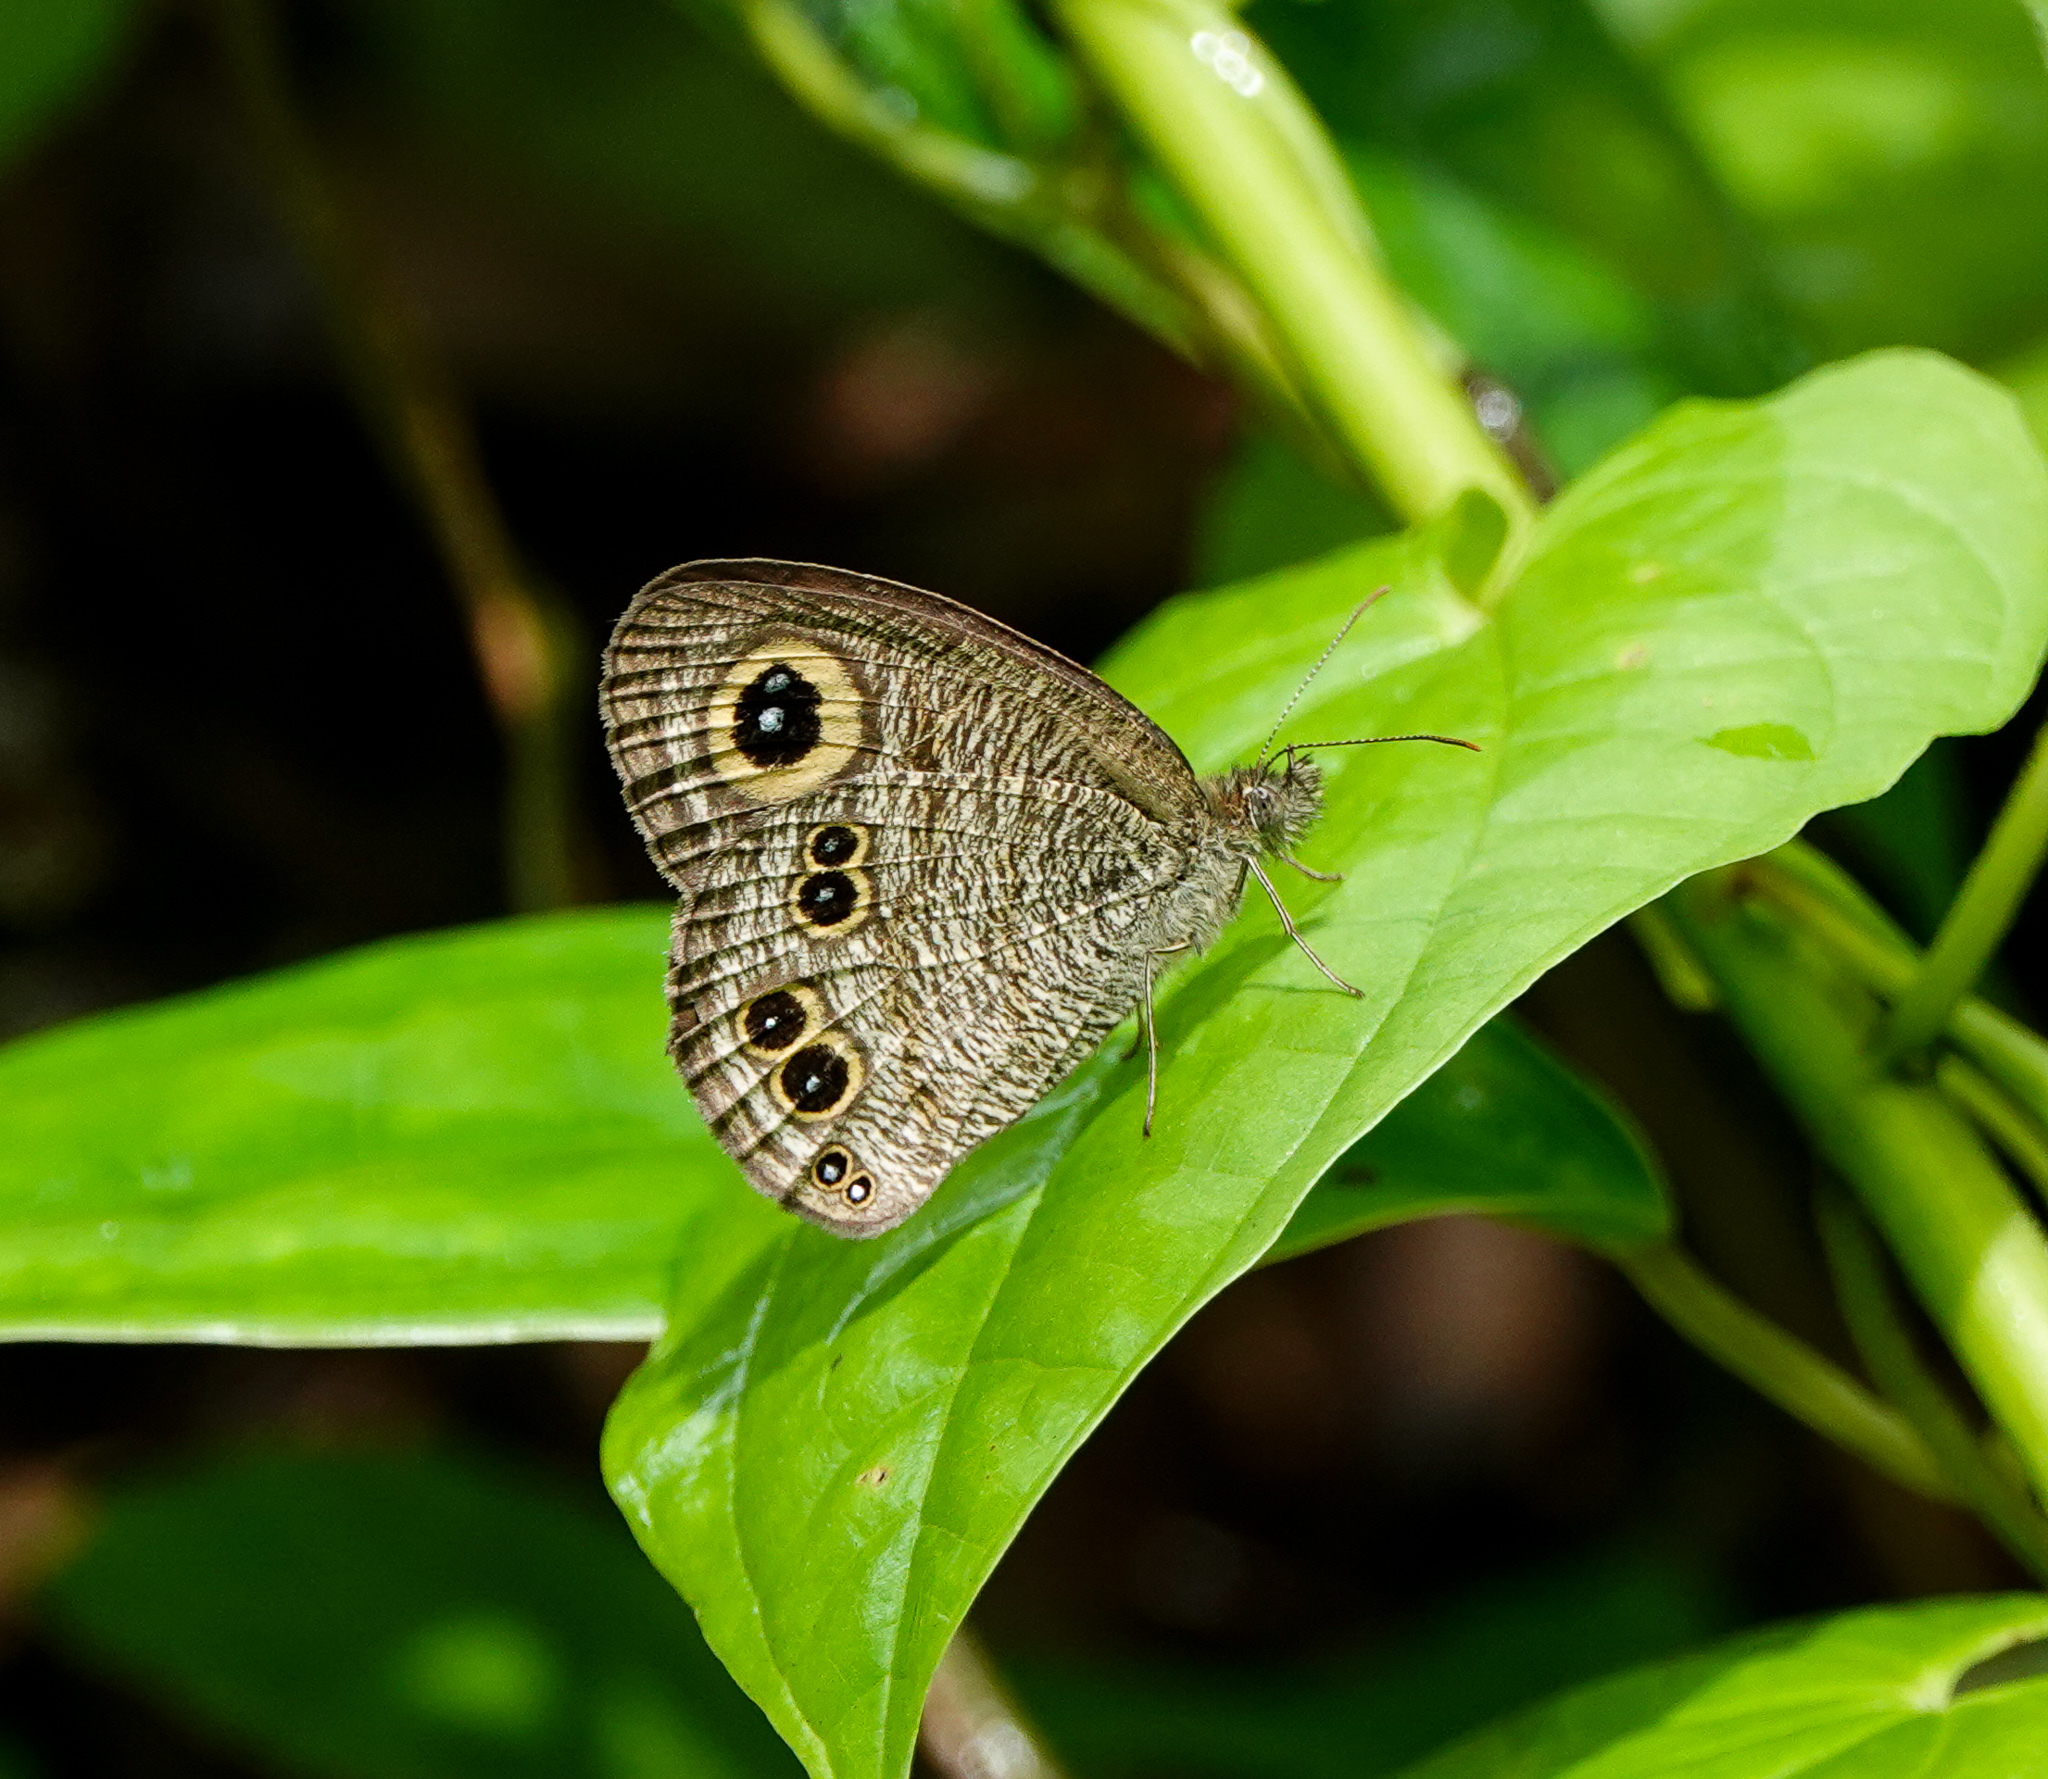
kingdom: Animalia
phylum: Arthropoda
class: Insecta
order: Lepidoptera
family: Nymphalidae
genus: Ypthima
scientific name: Ypthima baldus
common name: Common five-ring
